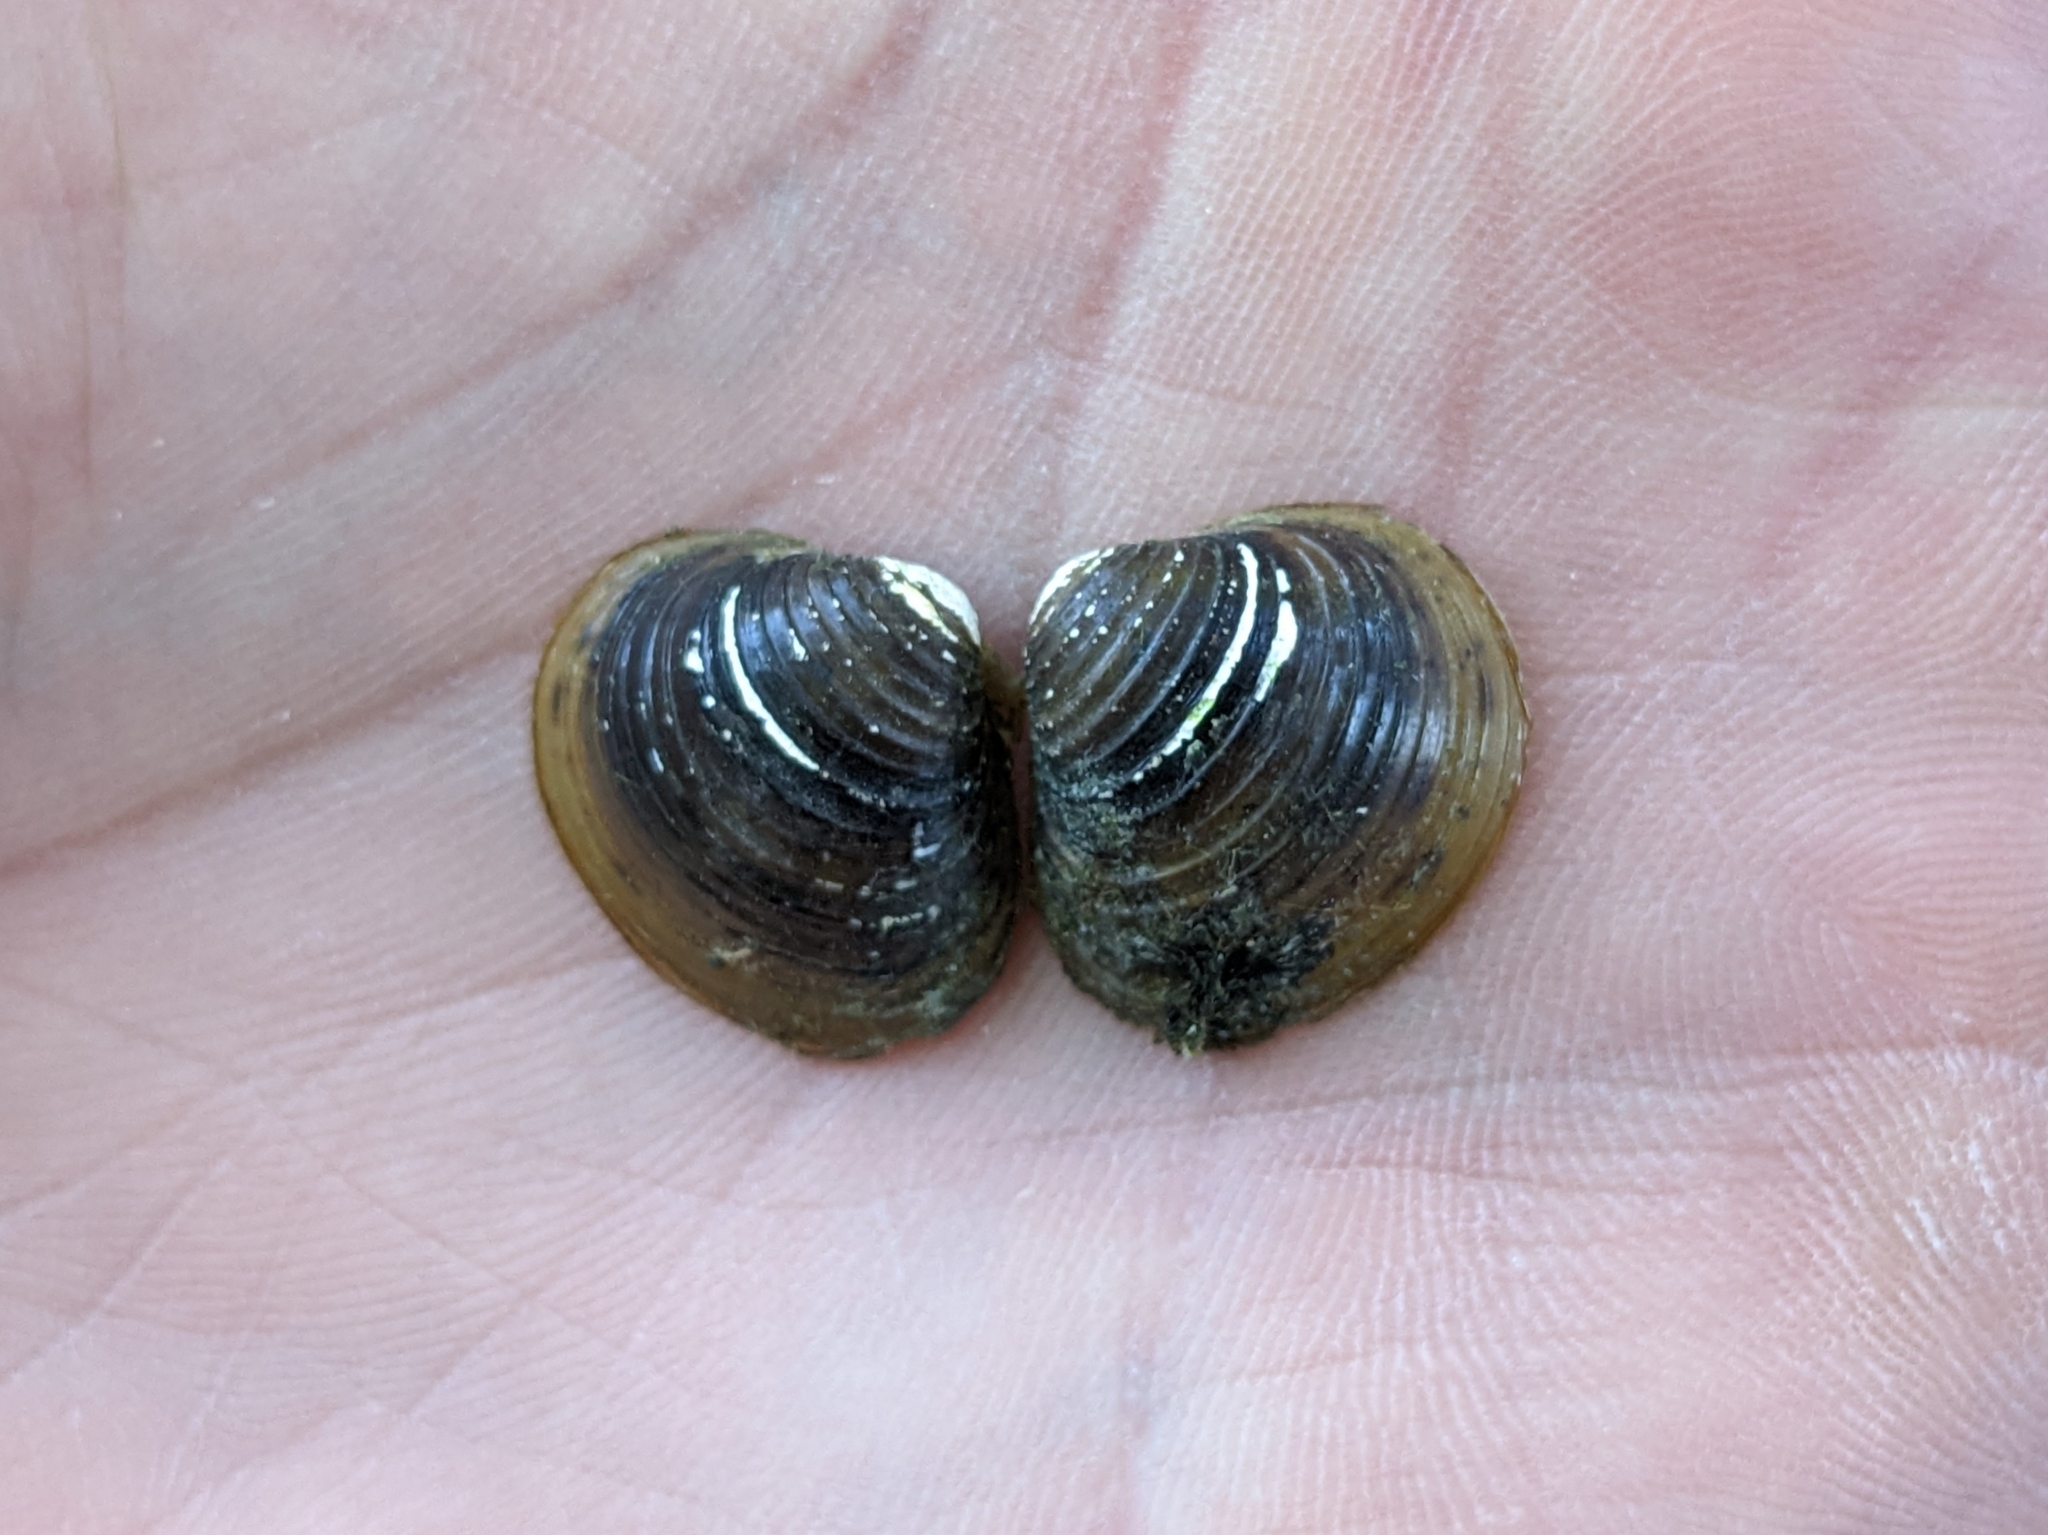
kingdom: Animalia
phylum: Mollusca
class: Bivalvia
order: Venerida
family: Cyrenidae
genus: Corbicula
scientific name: Corbicula fluminea
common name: Asian clam
